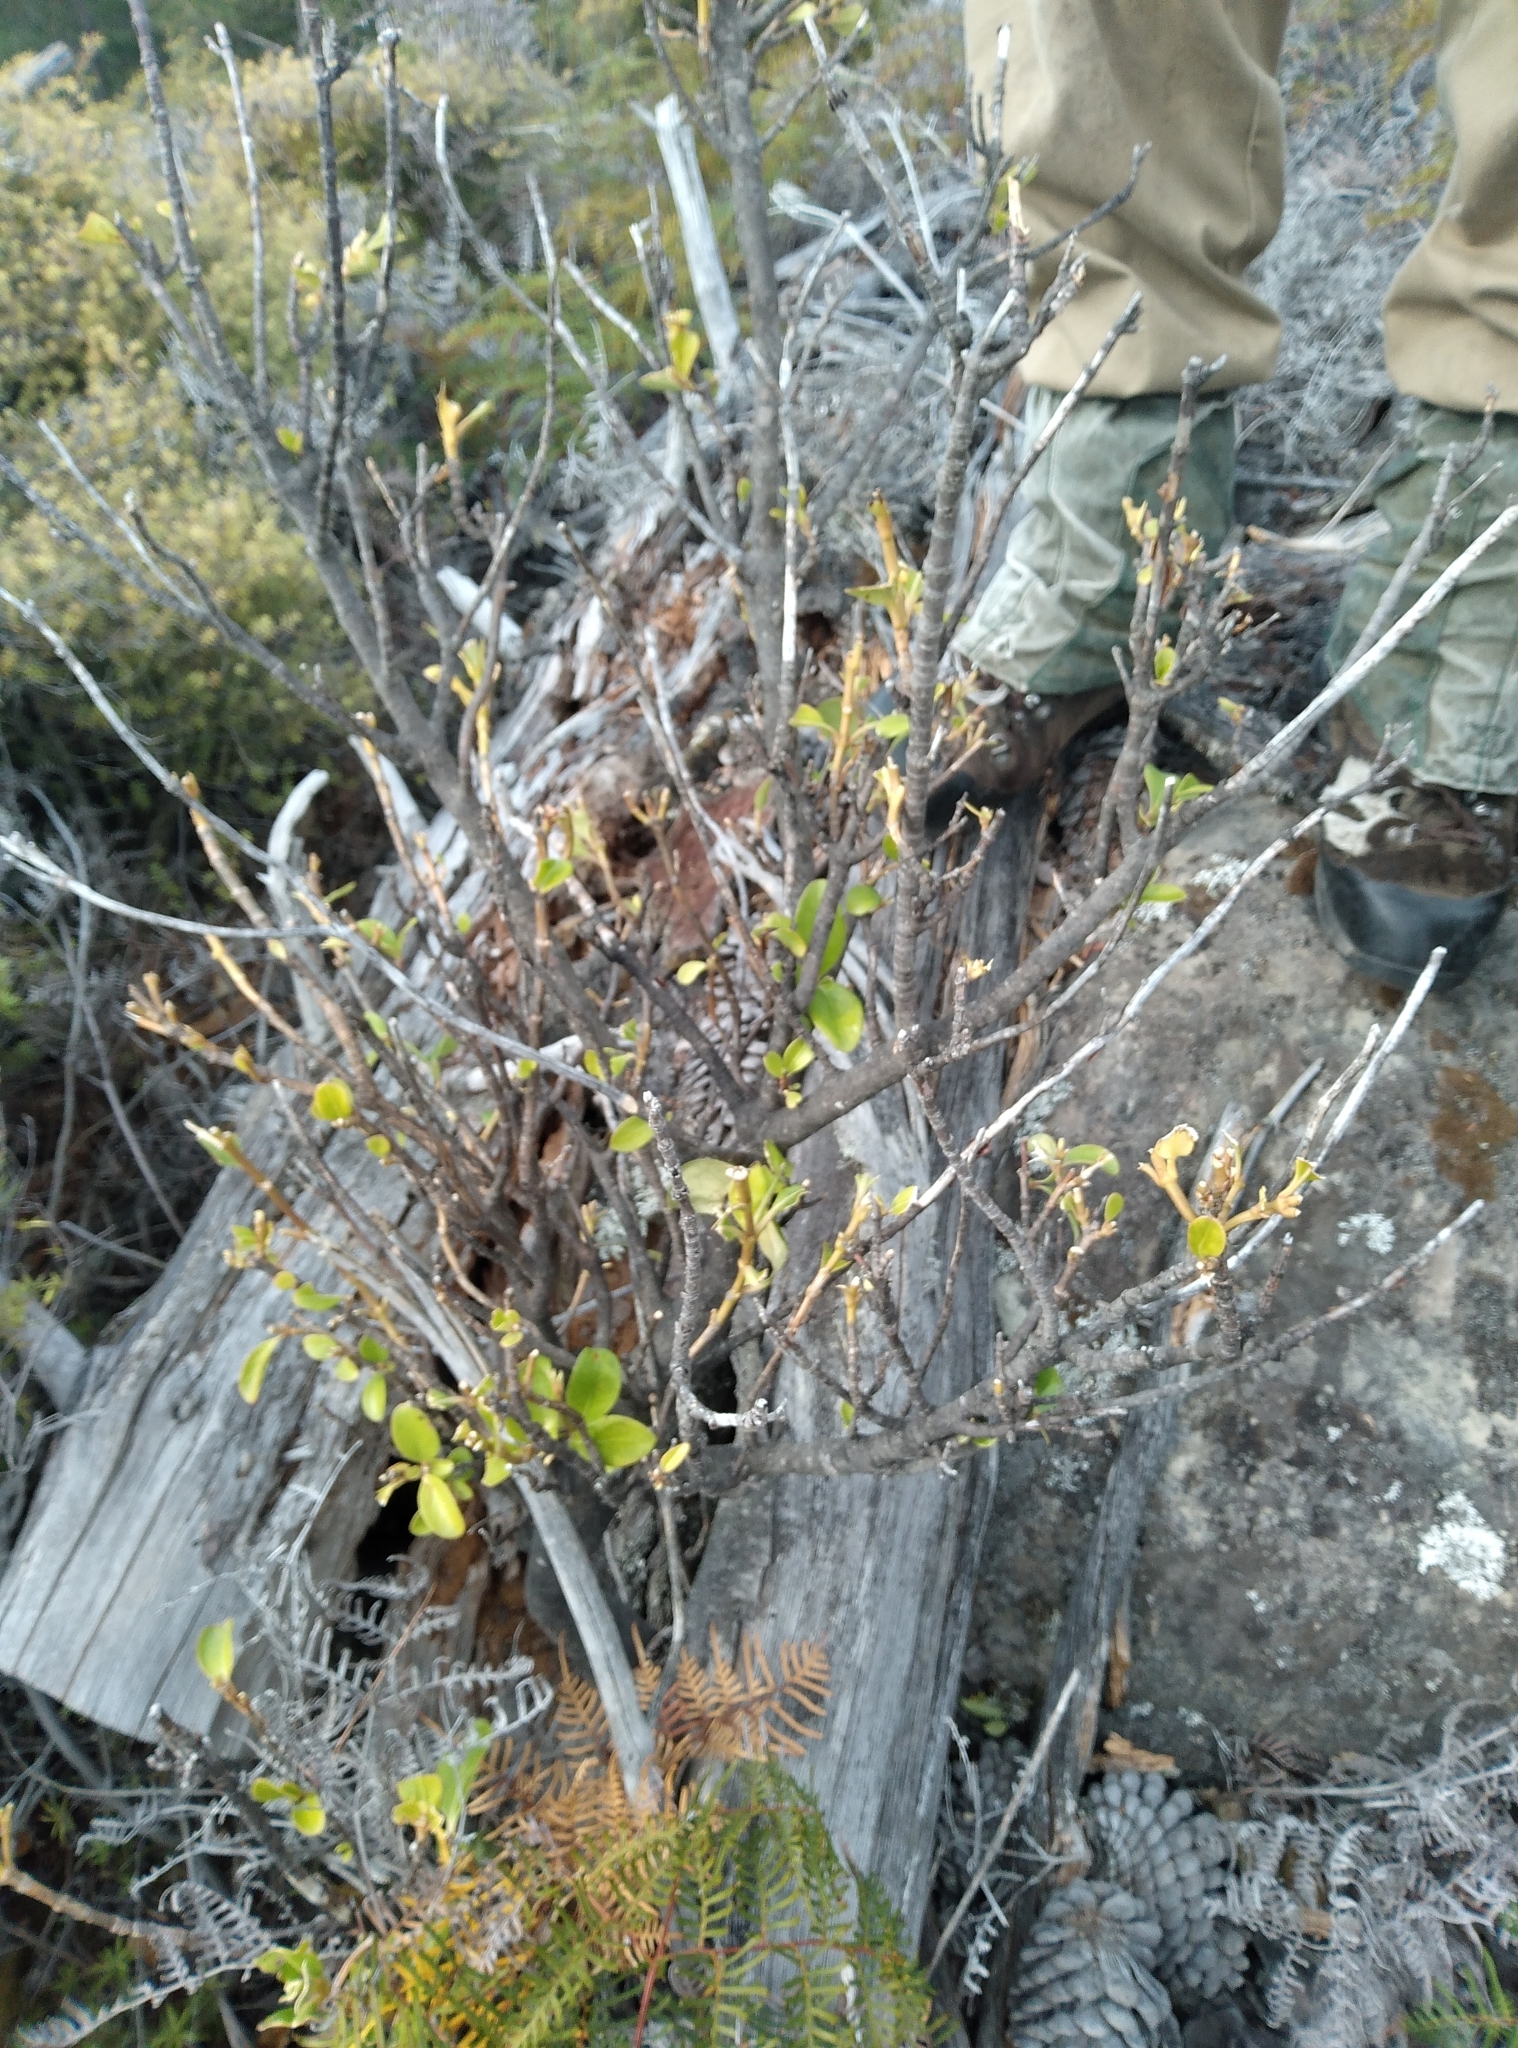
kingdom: Plantae
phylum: Tracheophyta
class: Magnoliopsida
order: Apiales
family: Griseliniaceae
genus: Griselinia
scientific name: Griselinia littoralis
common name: New zealand broadleaf
